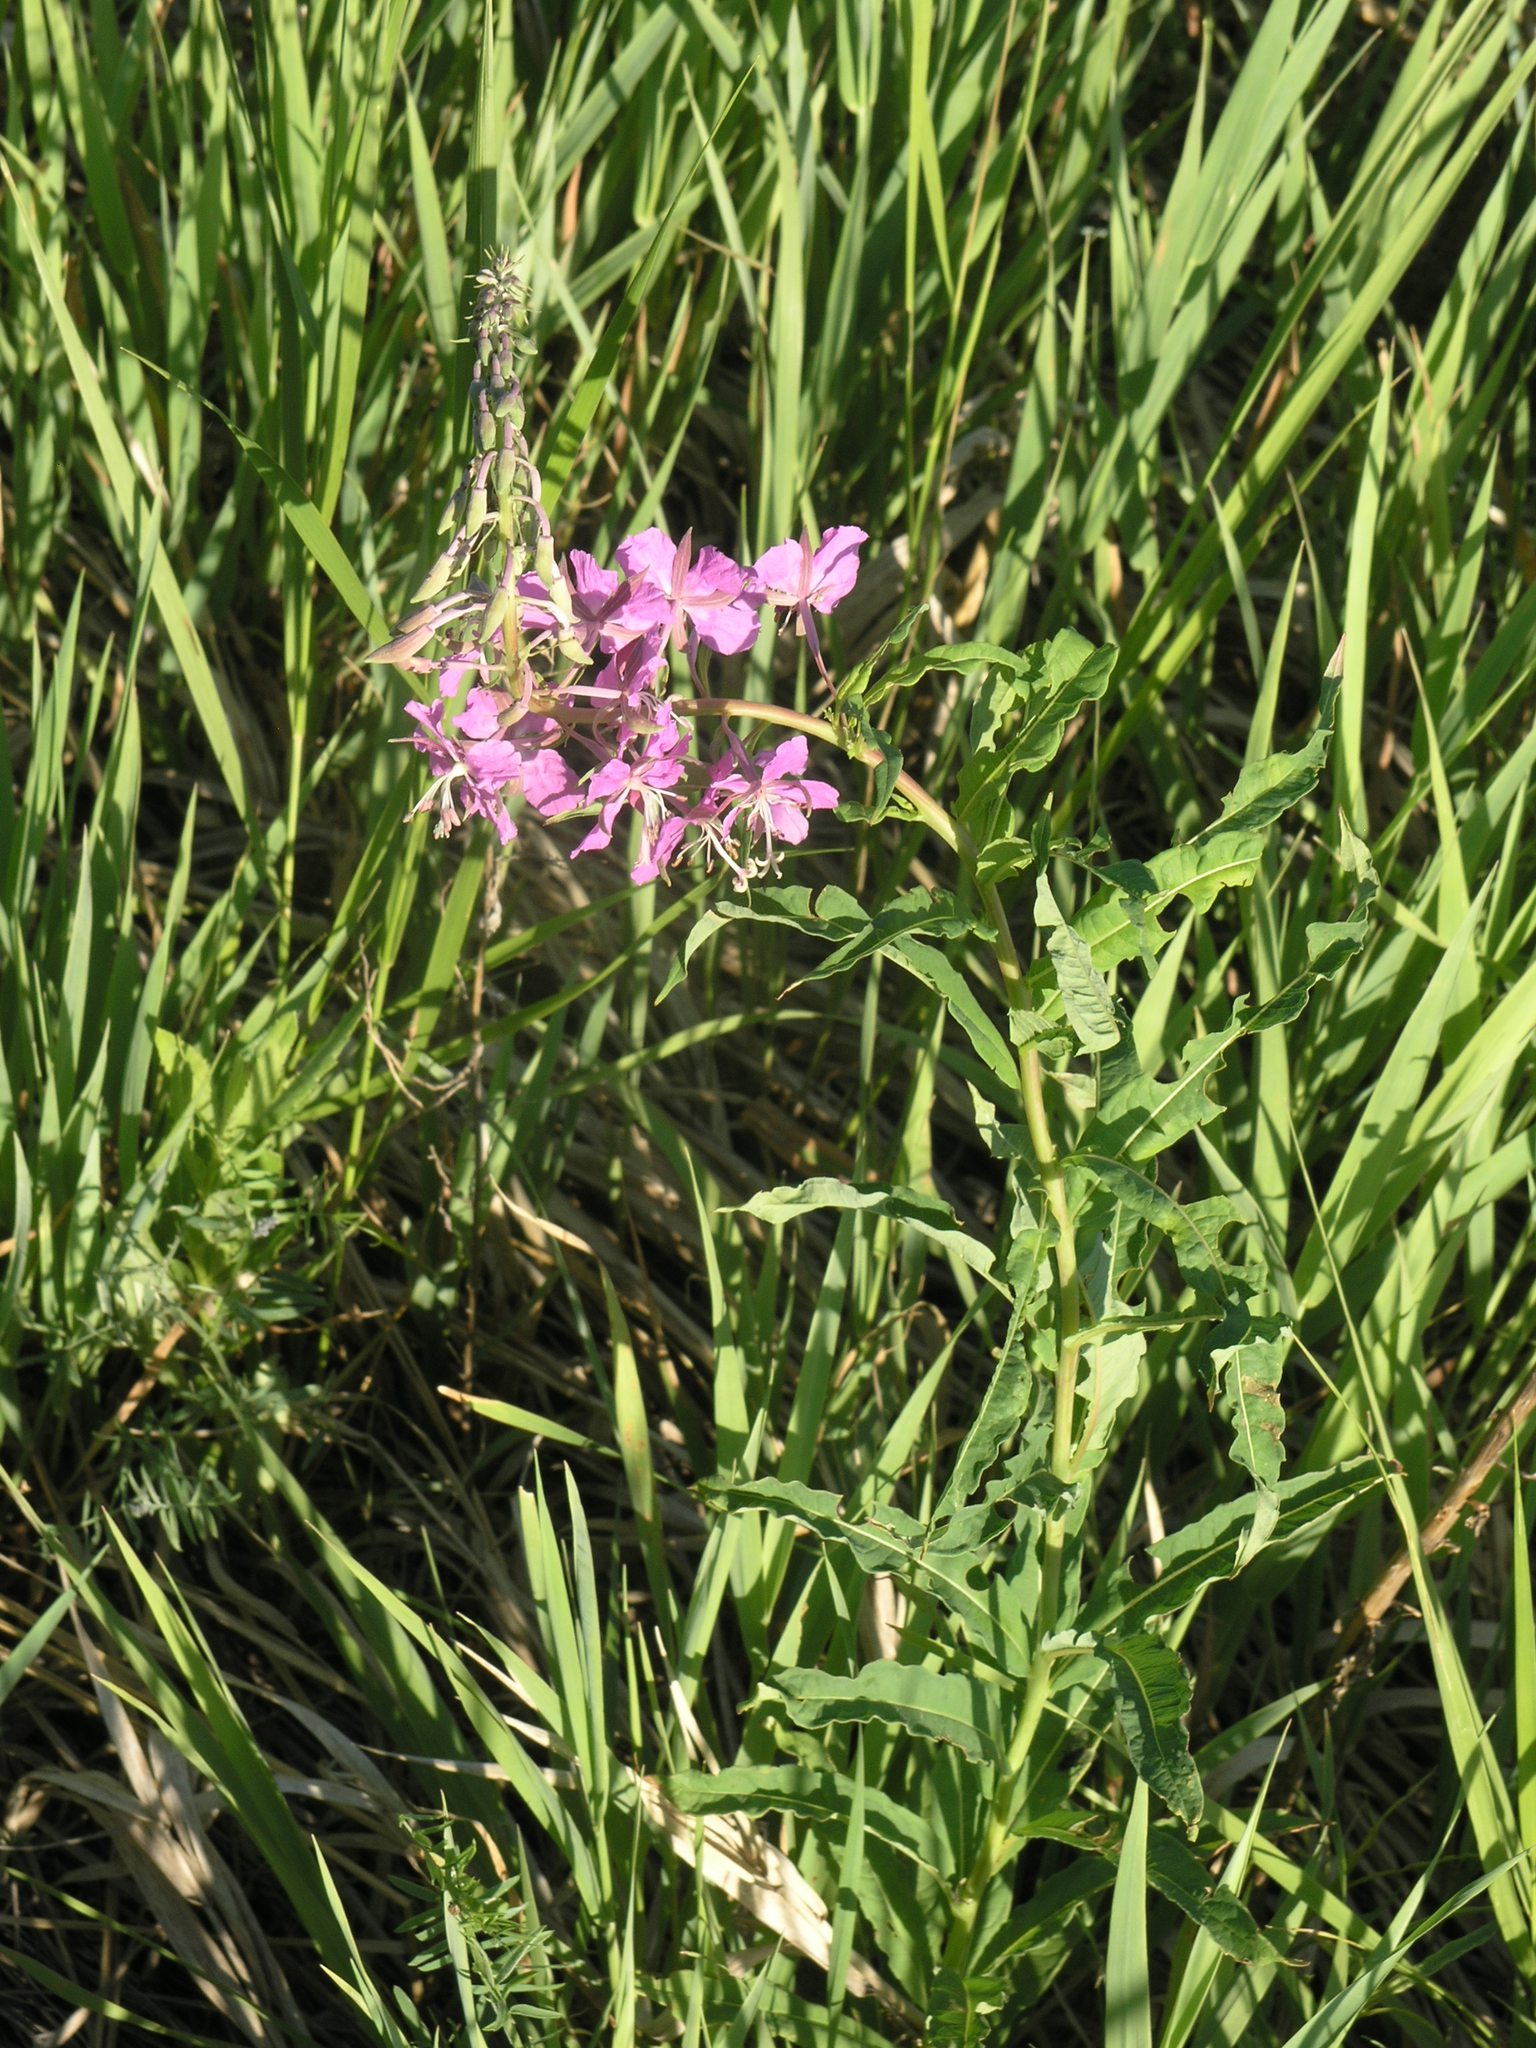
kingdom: Plantae
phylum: Tracheophyta
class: Magnoliopsida
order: Myrtales
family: Onagraceae
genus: Chamaenerion
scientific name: Chamaenerion angustifolium
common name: Fireweed
